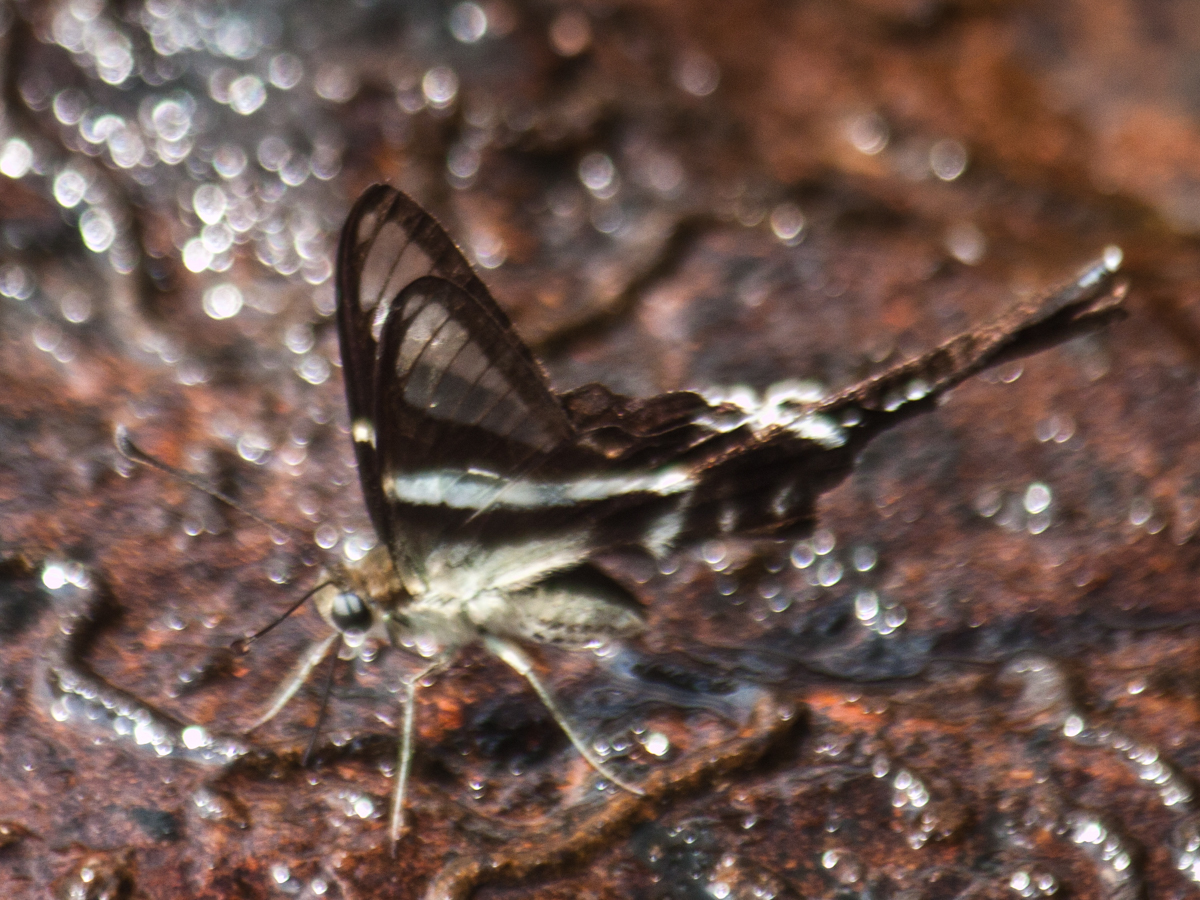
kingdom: Animalia
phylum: Arthropoda
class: Insecta
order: Lepidoptera
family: Papilionidae
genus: Lamproptera
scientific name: Lamproptera curius
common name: White dragontail
